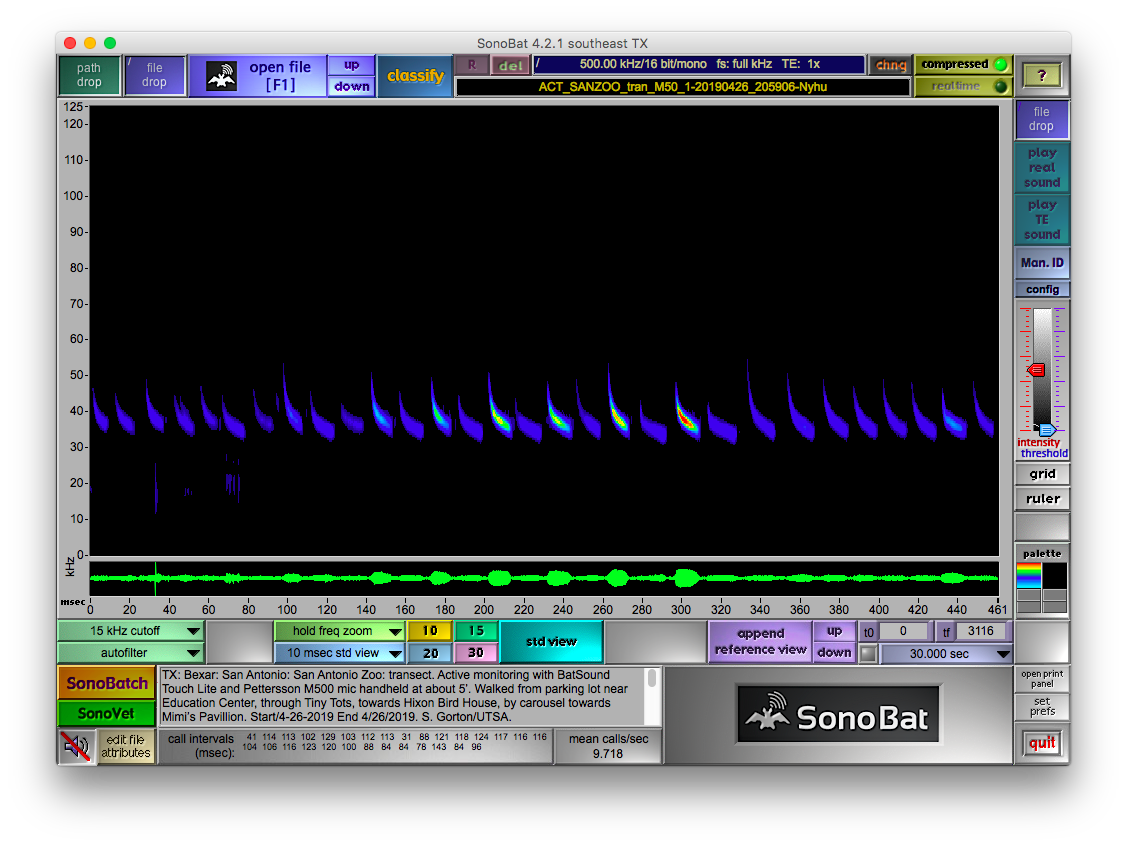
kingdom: Animalia
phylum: Chordata
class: Mammalia
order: Chiroptera
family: Vespertilionidae
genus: Nycticeius
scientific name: Nycticeius humeralis
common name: Evening bat
